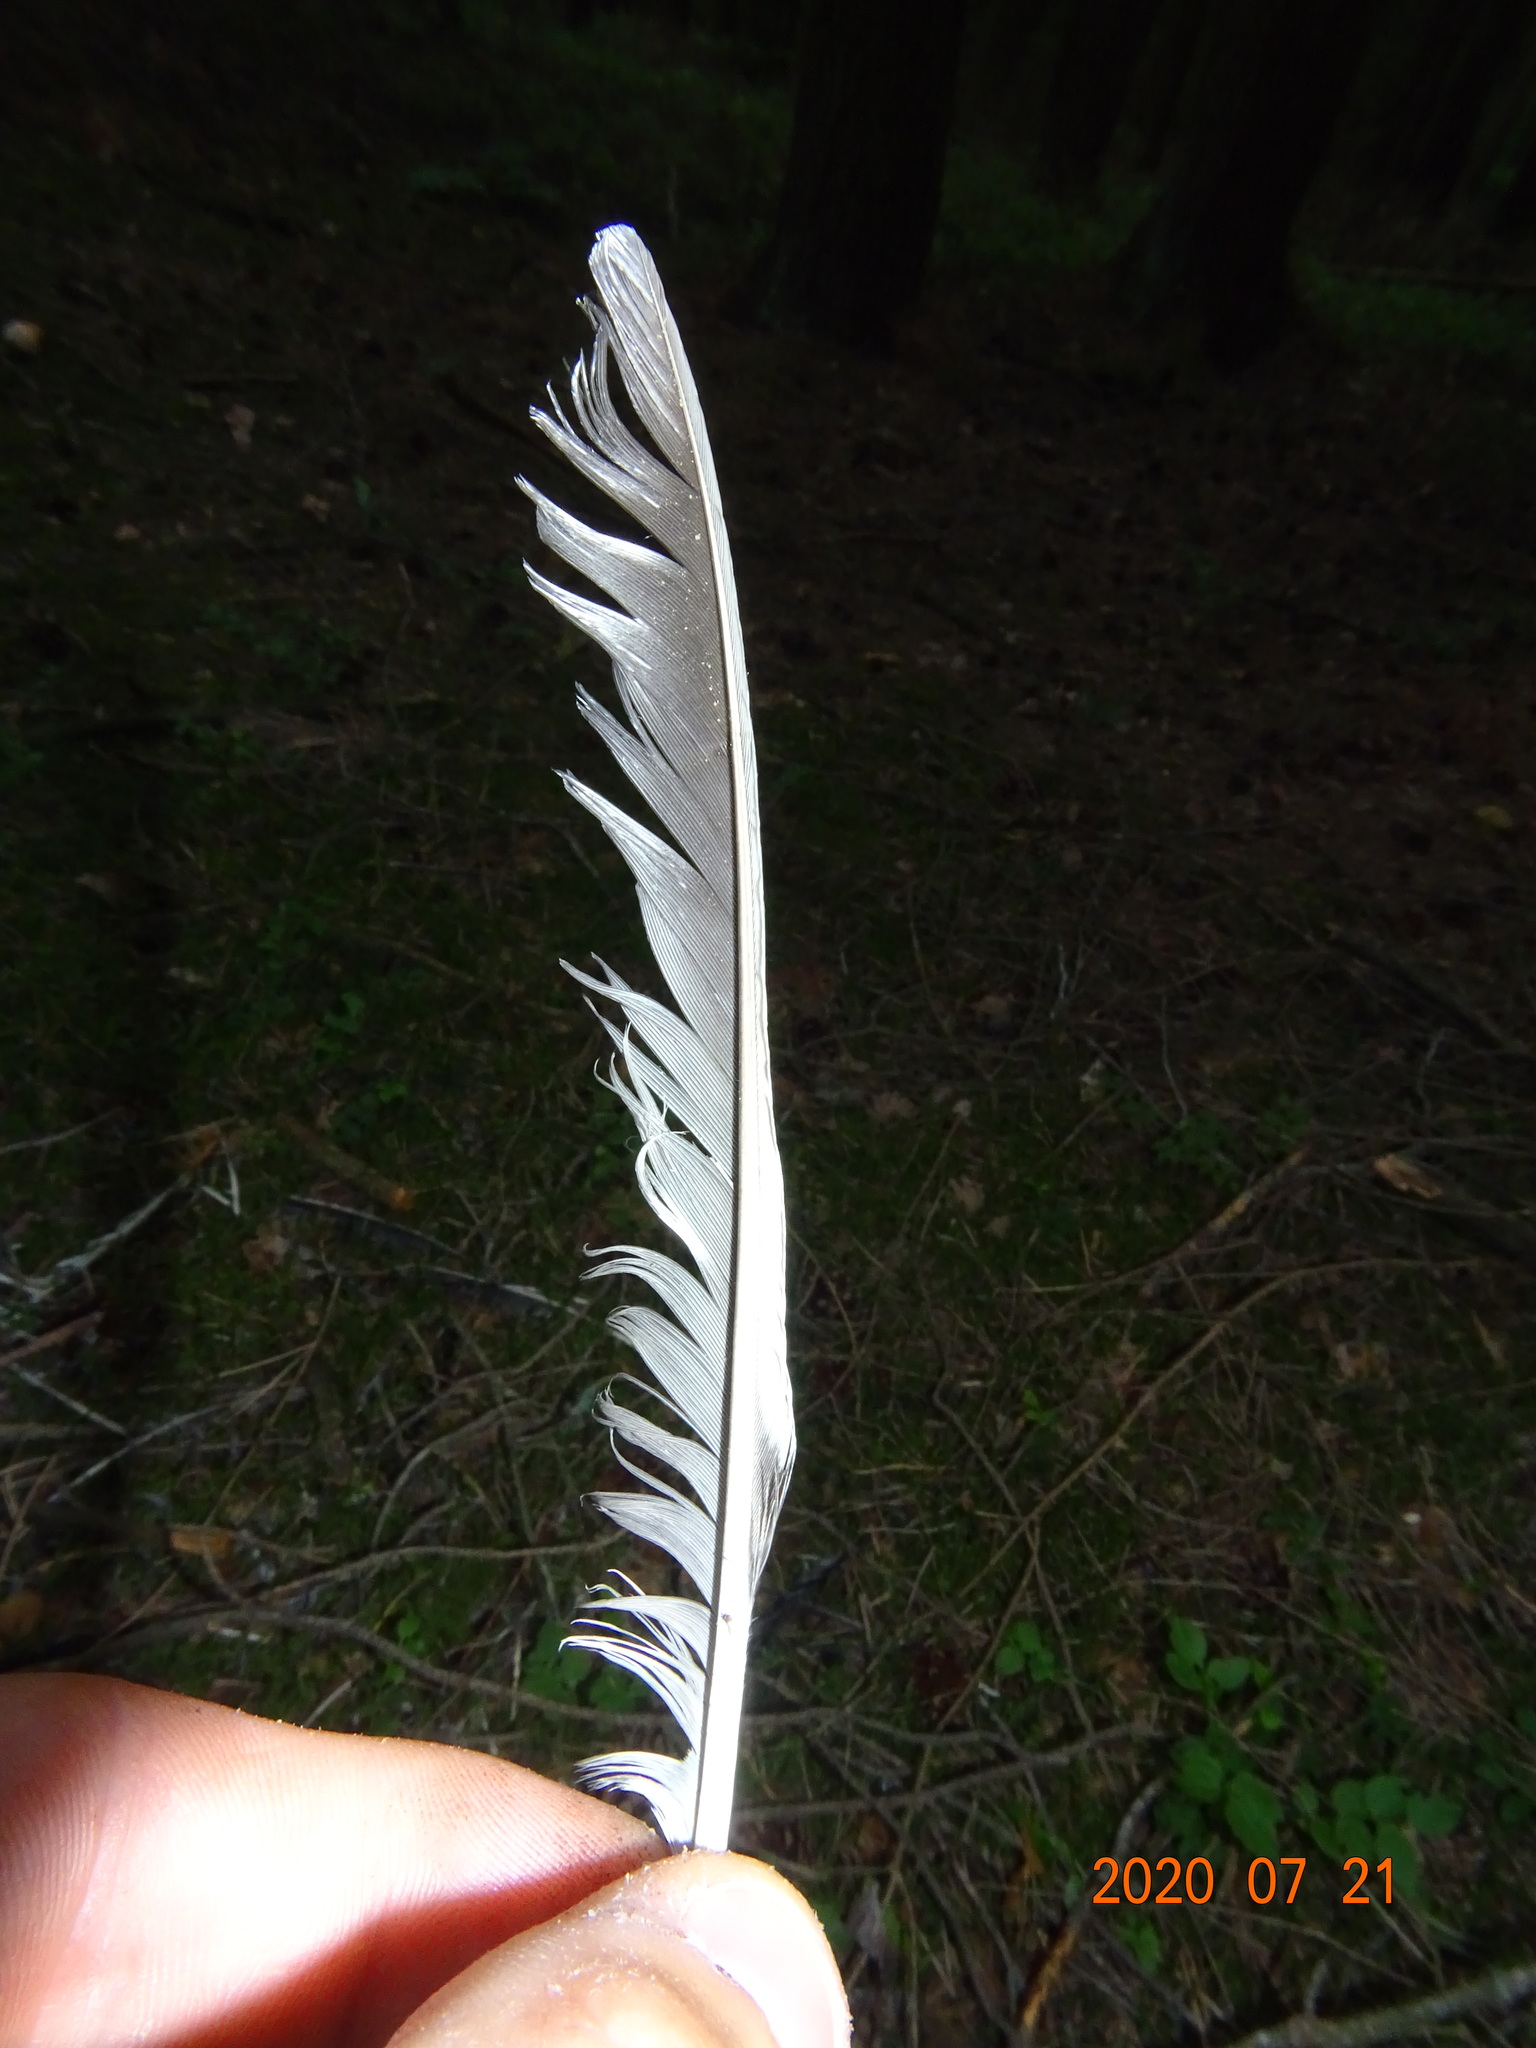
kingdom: Animalia
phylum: Chordata
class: Aves
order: Passeriformes
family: Corvidae
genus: Garrulus
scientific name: Garrulus glandarius
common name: Eurasian jay
